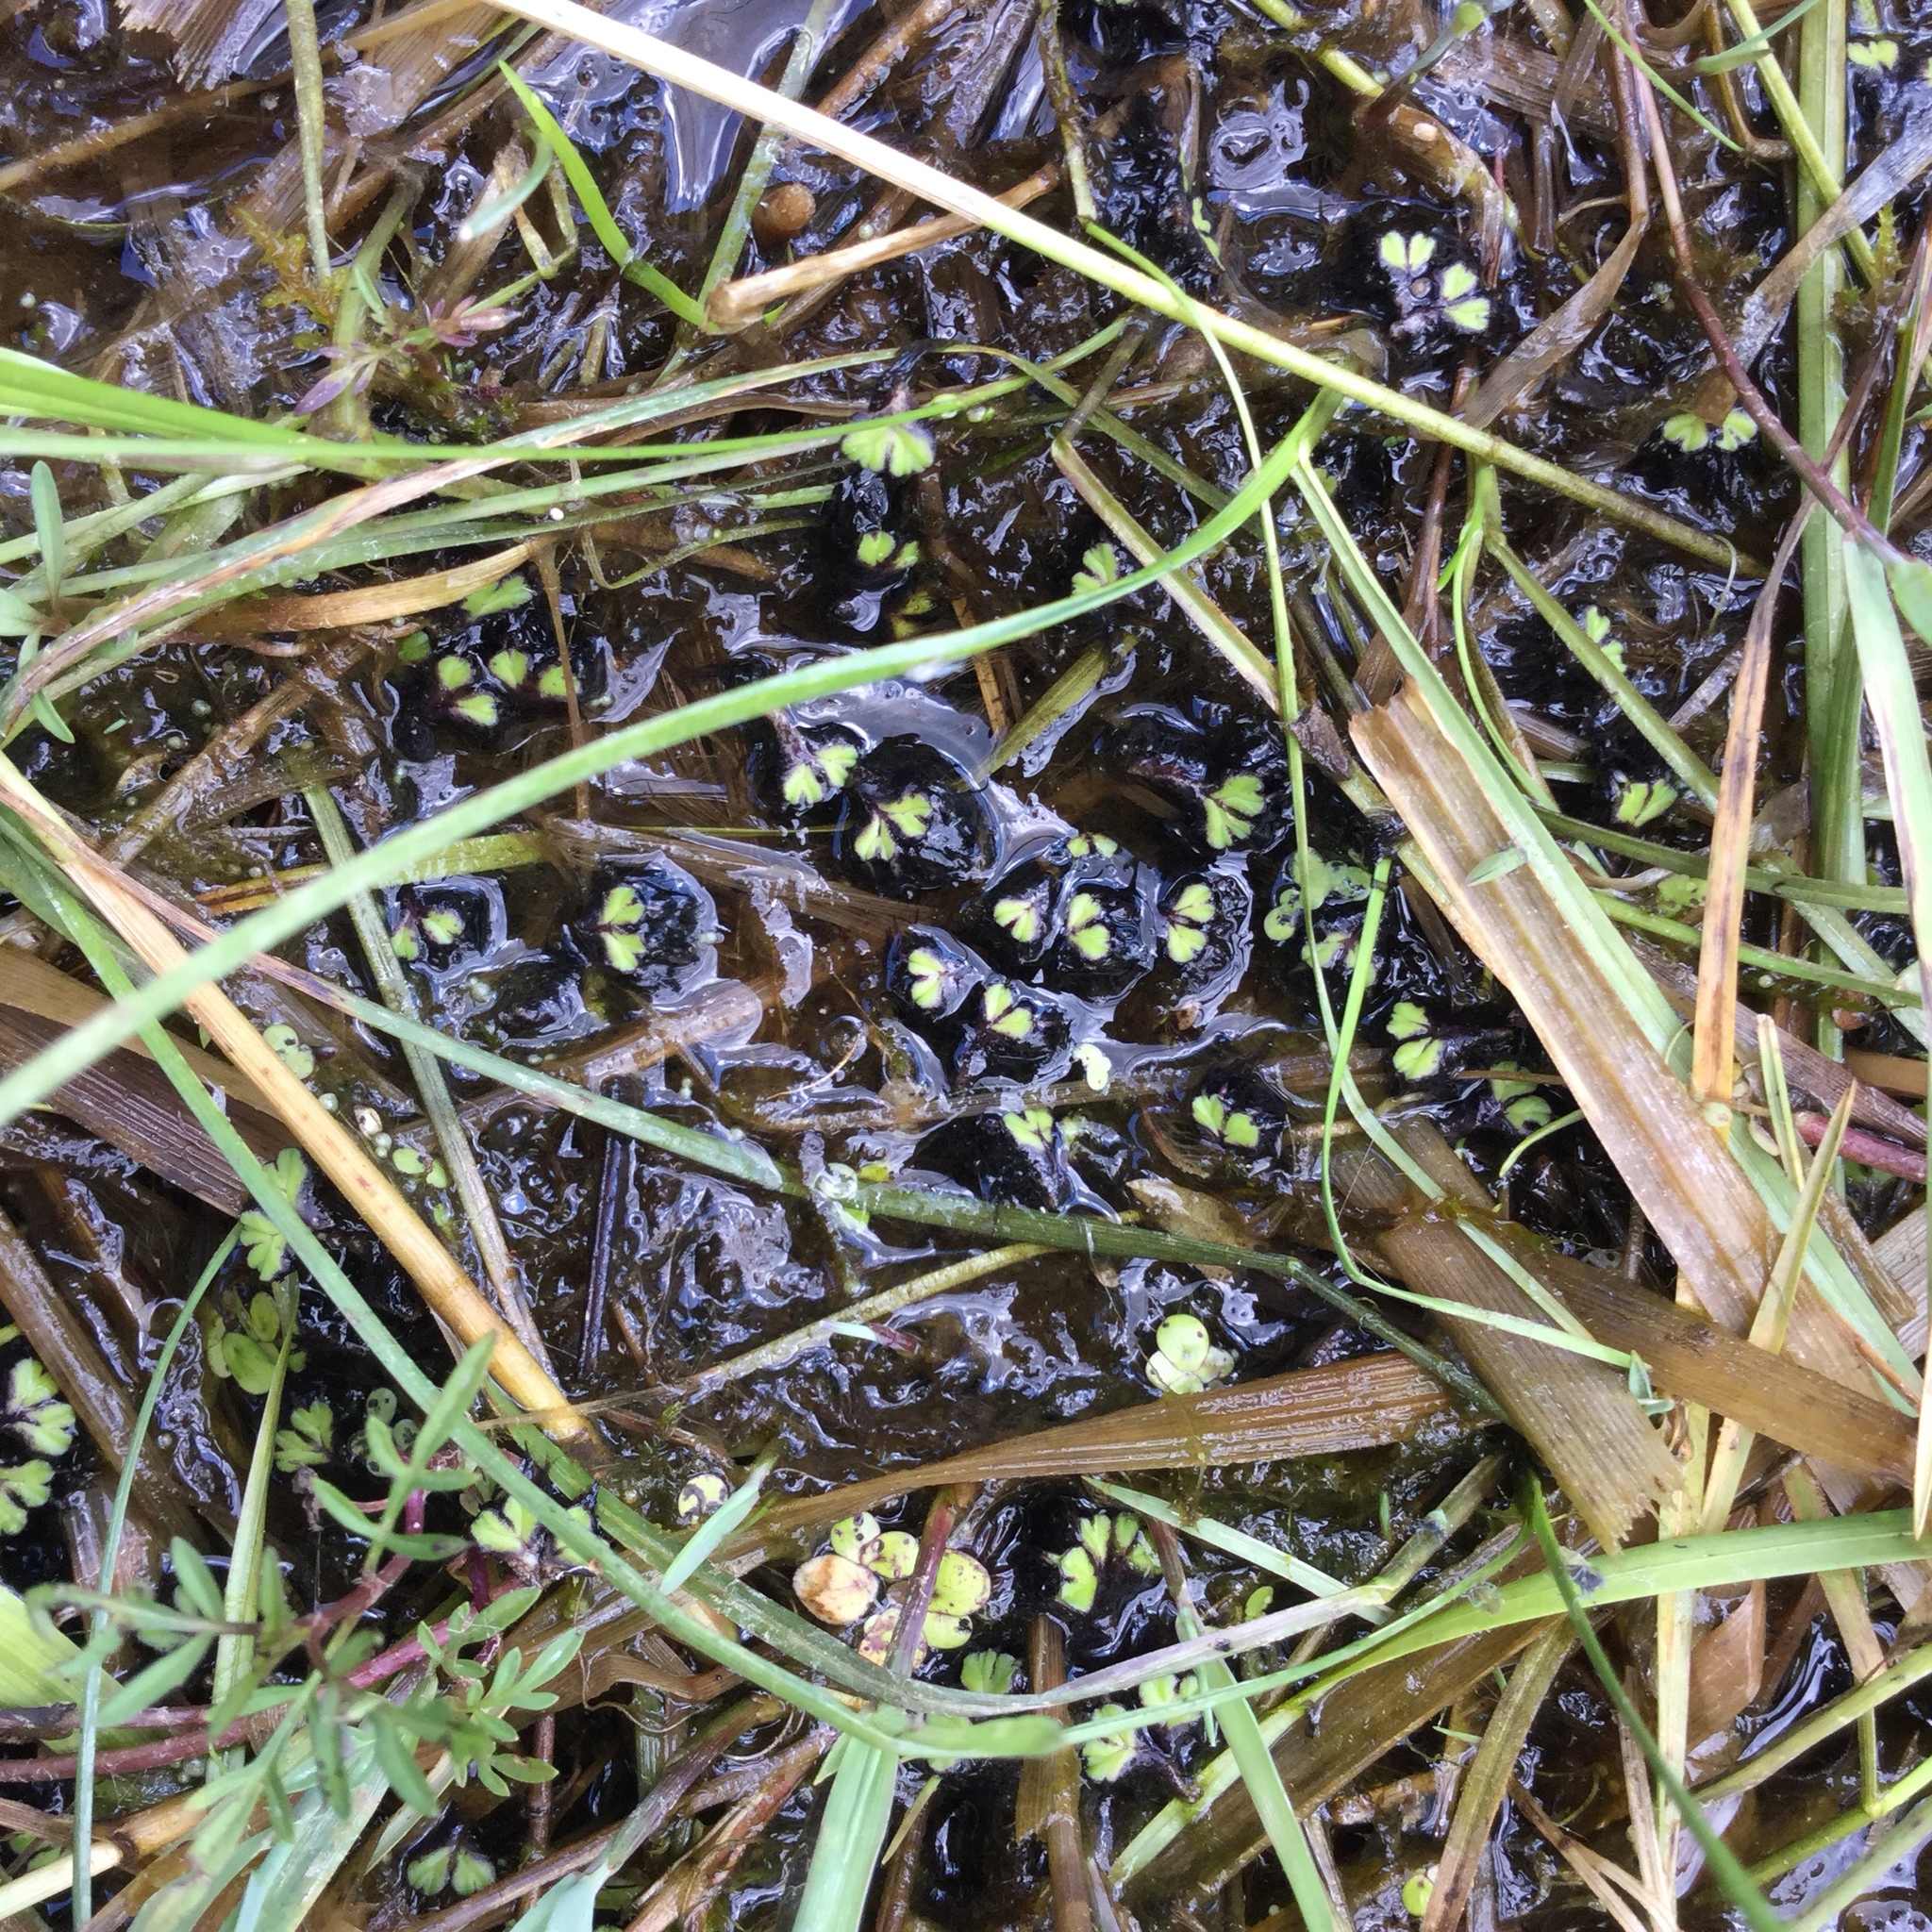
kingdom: Plantae
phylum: Marchantiophyta
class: Marchantiopsida
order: Marchantiales
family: Ricciaceae
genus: Ricciocarpos
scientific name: Ricciocarpos natans
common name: Purple-fringed liverwort
